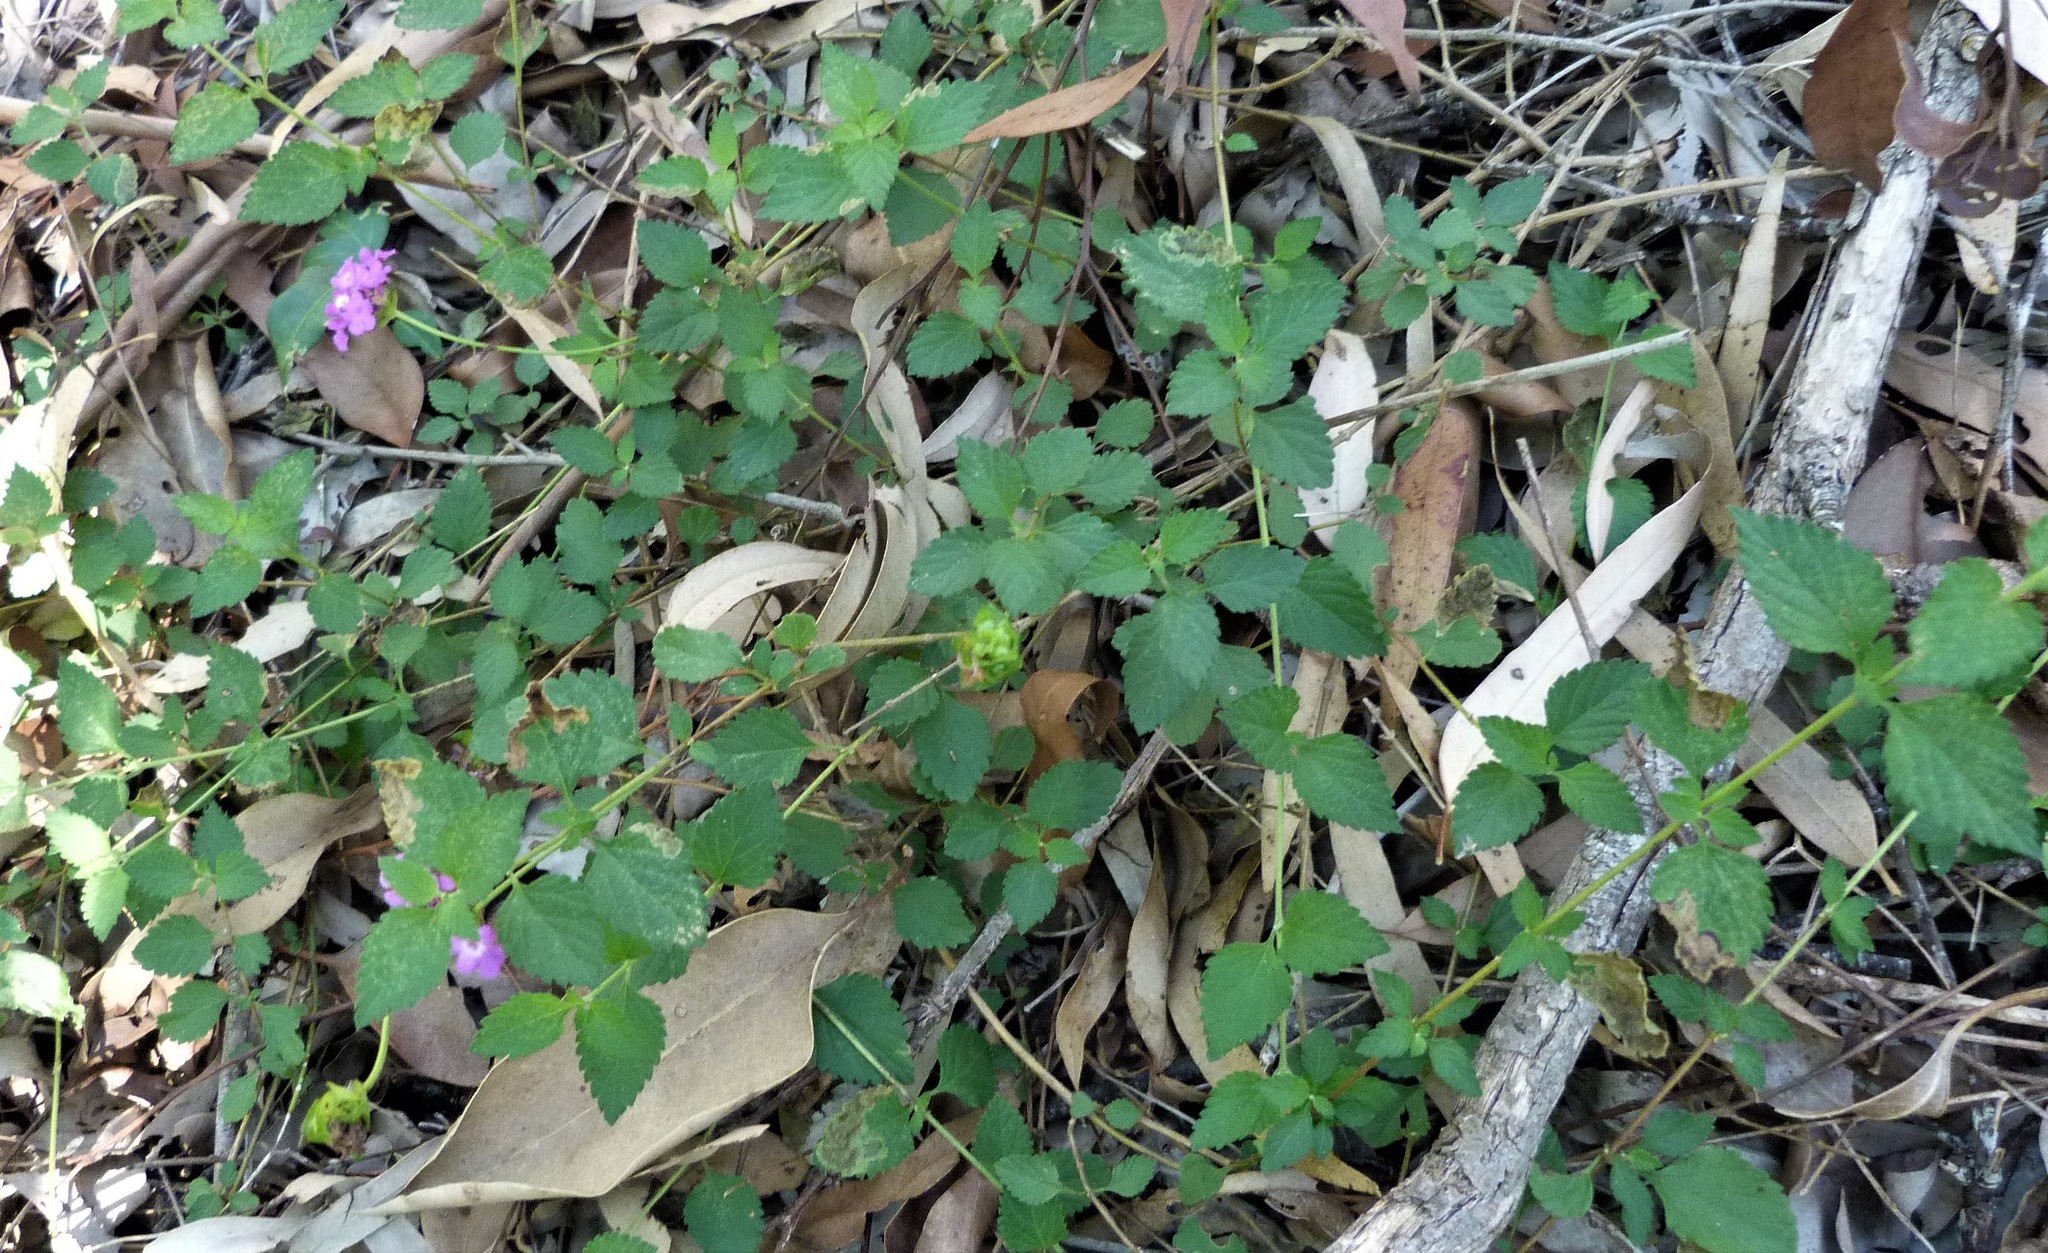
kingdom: Plantae
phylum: Tracheophyta
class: Magnoliopsida
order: Lamiales
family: Verbenaceae
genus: Lantana
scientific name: Lantana montevidensis
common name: Trailing shrubverbena
